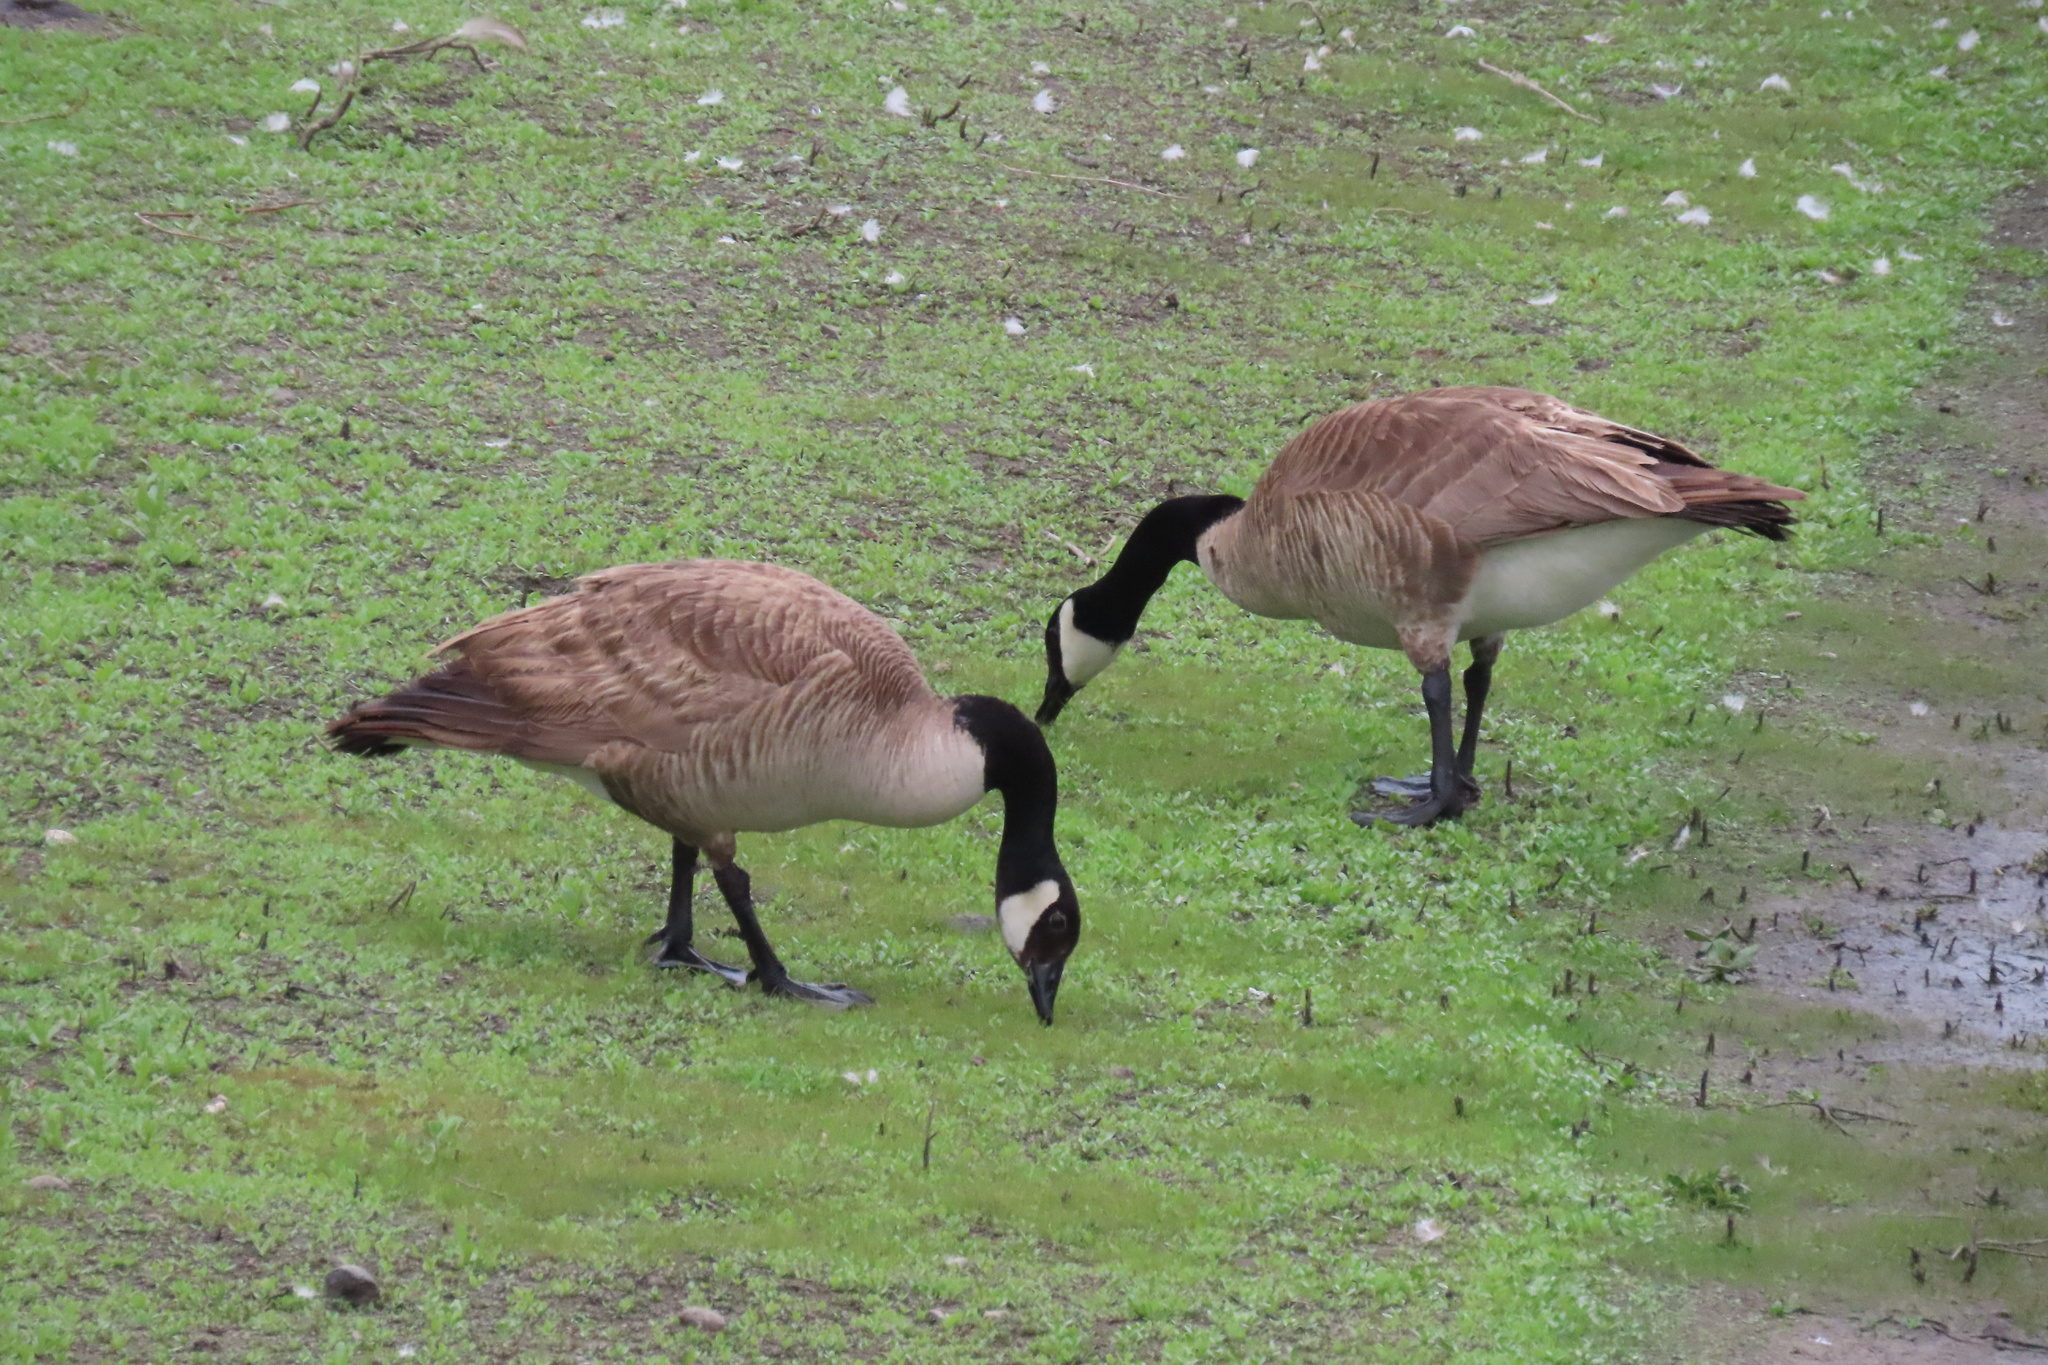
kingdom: Animalia
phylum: Chordata
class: Aves
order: Anseriformes
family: Anatidae
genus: Branta
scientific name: Branta canadensis
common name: Canada goose
